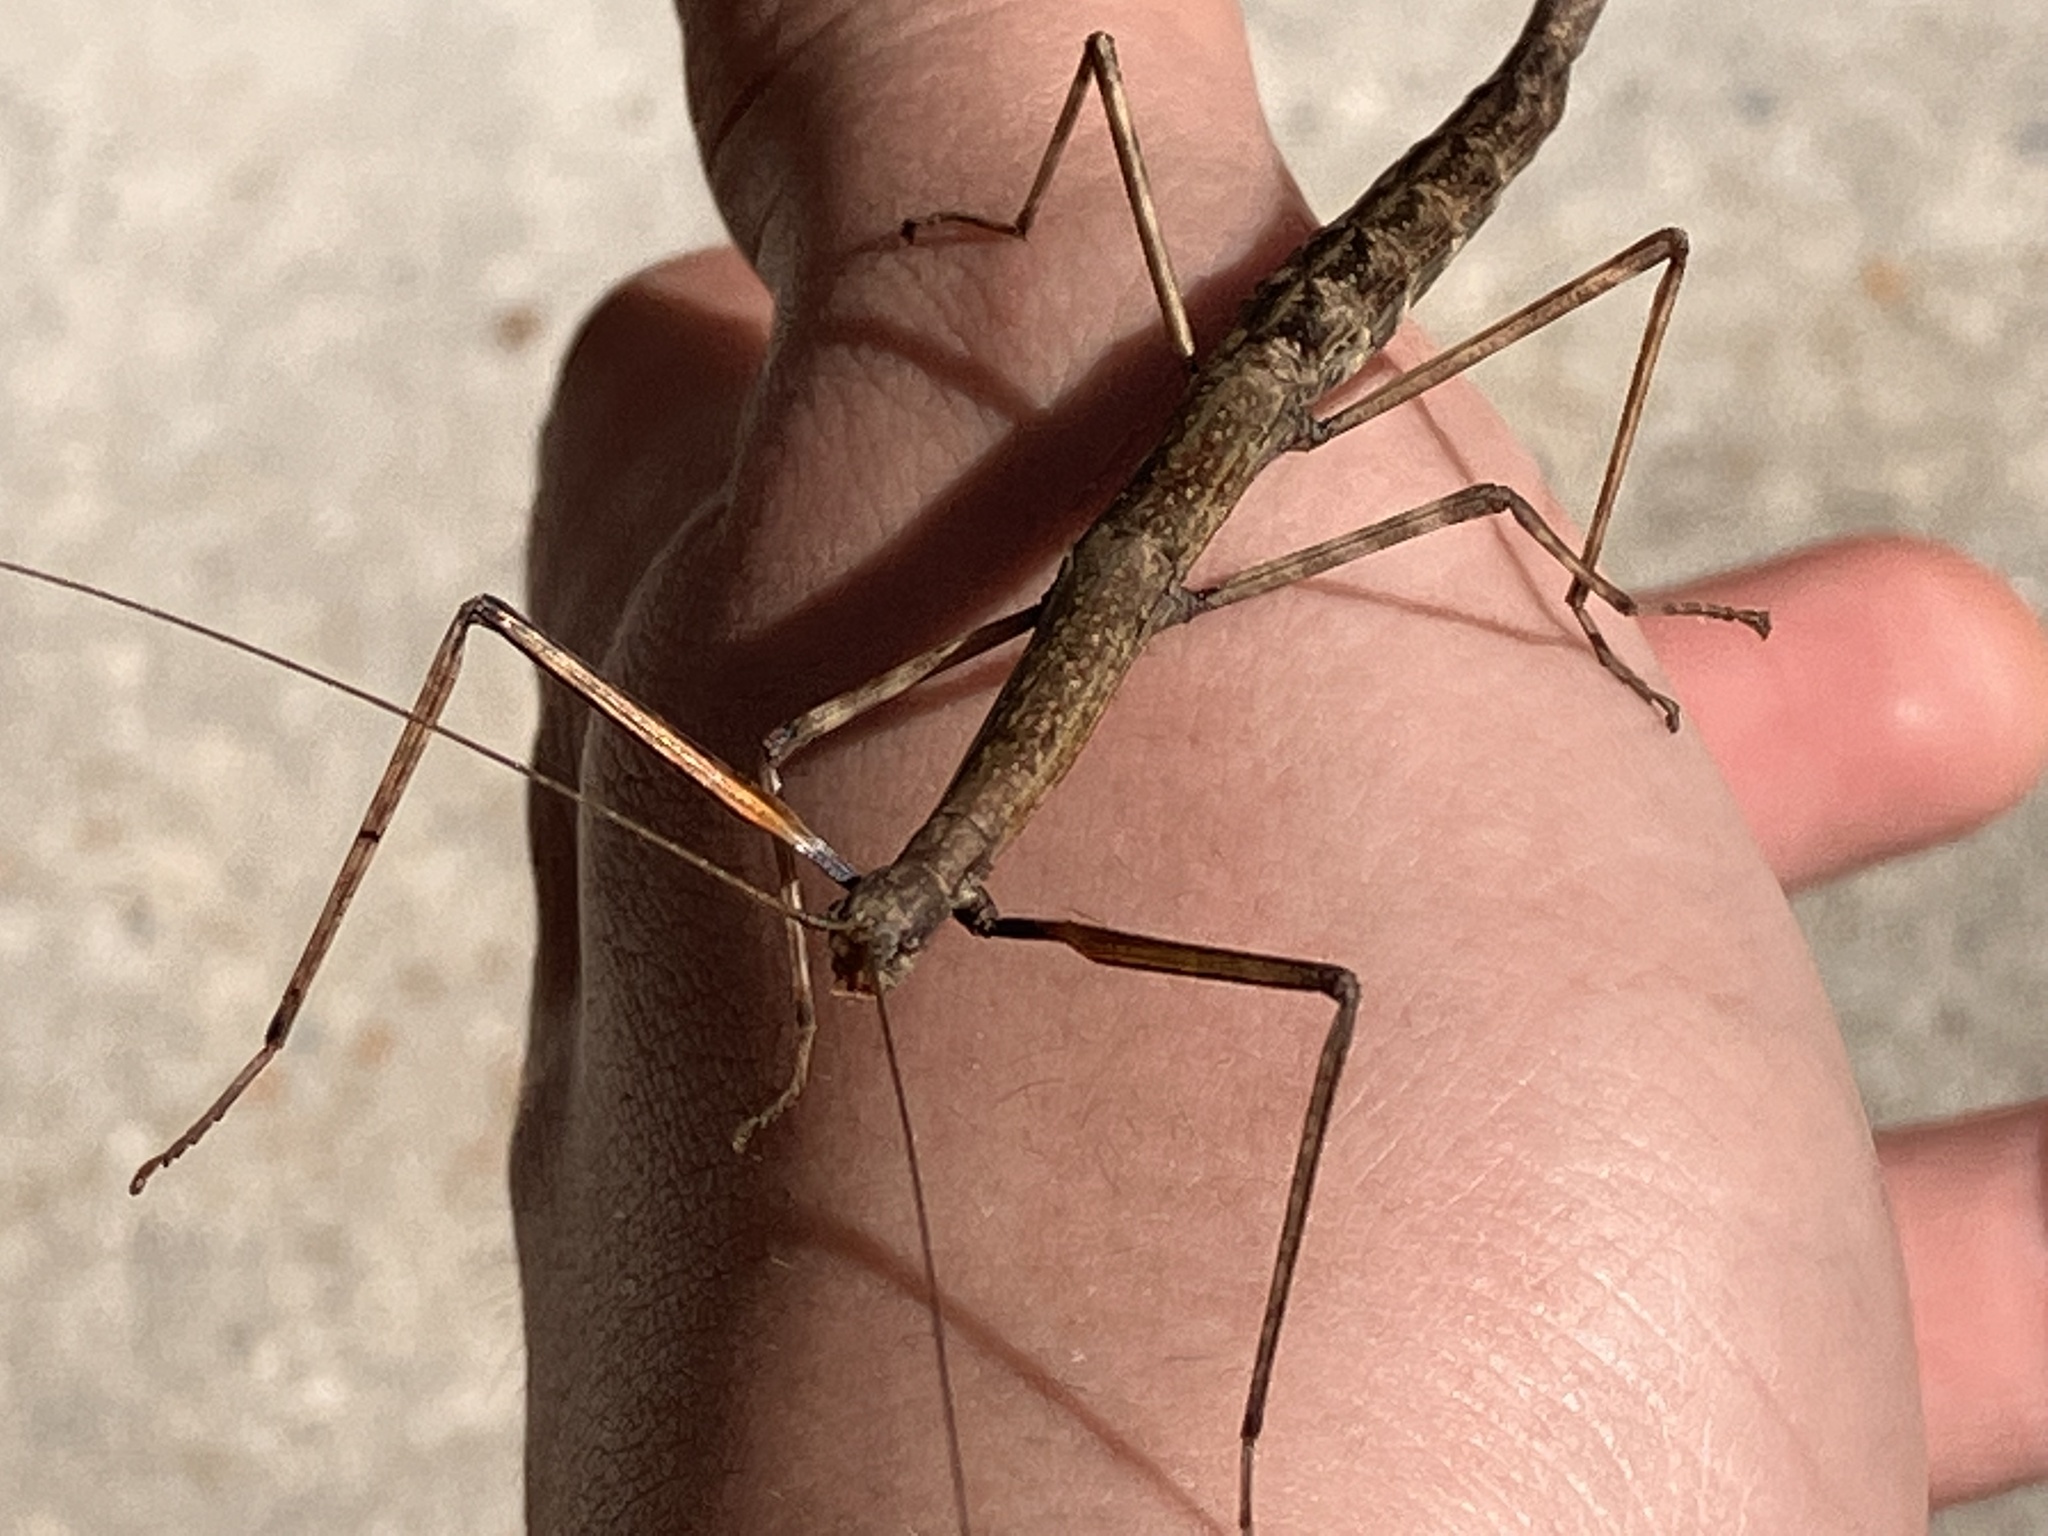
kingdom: Animalia
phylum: Arthropoda
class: Insecta
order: Phasmida
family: Diapheromeridae
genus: Diapheromera
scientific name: Diapheromera femorata
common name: Common american walkingstick
